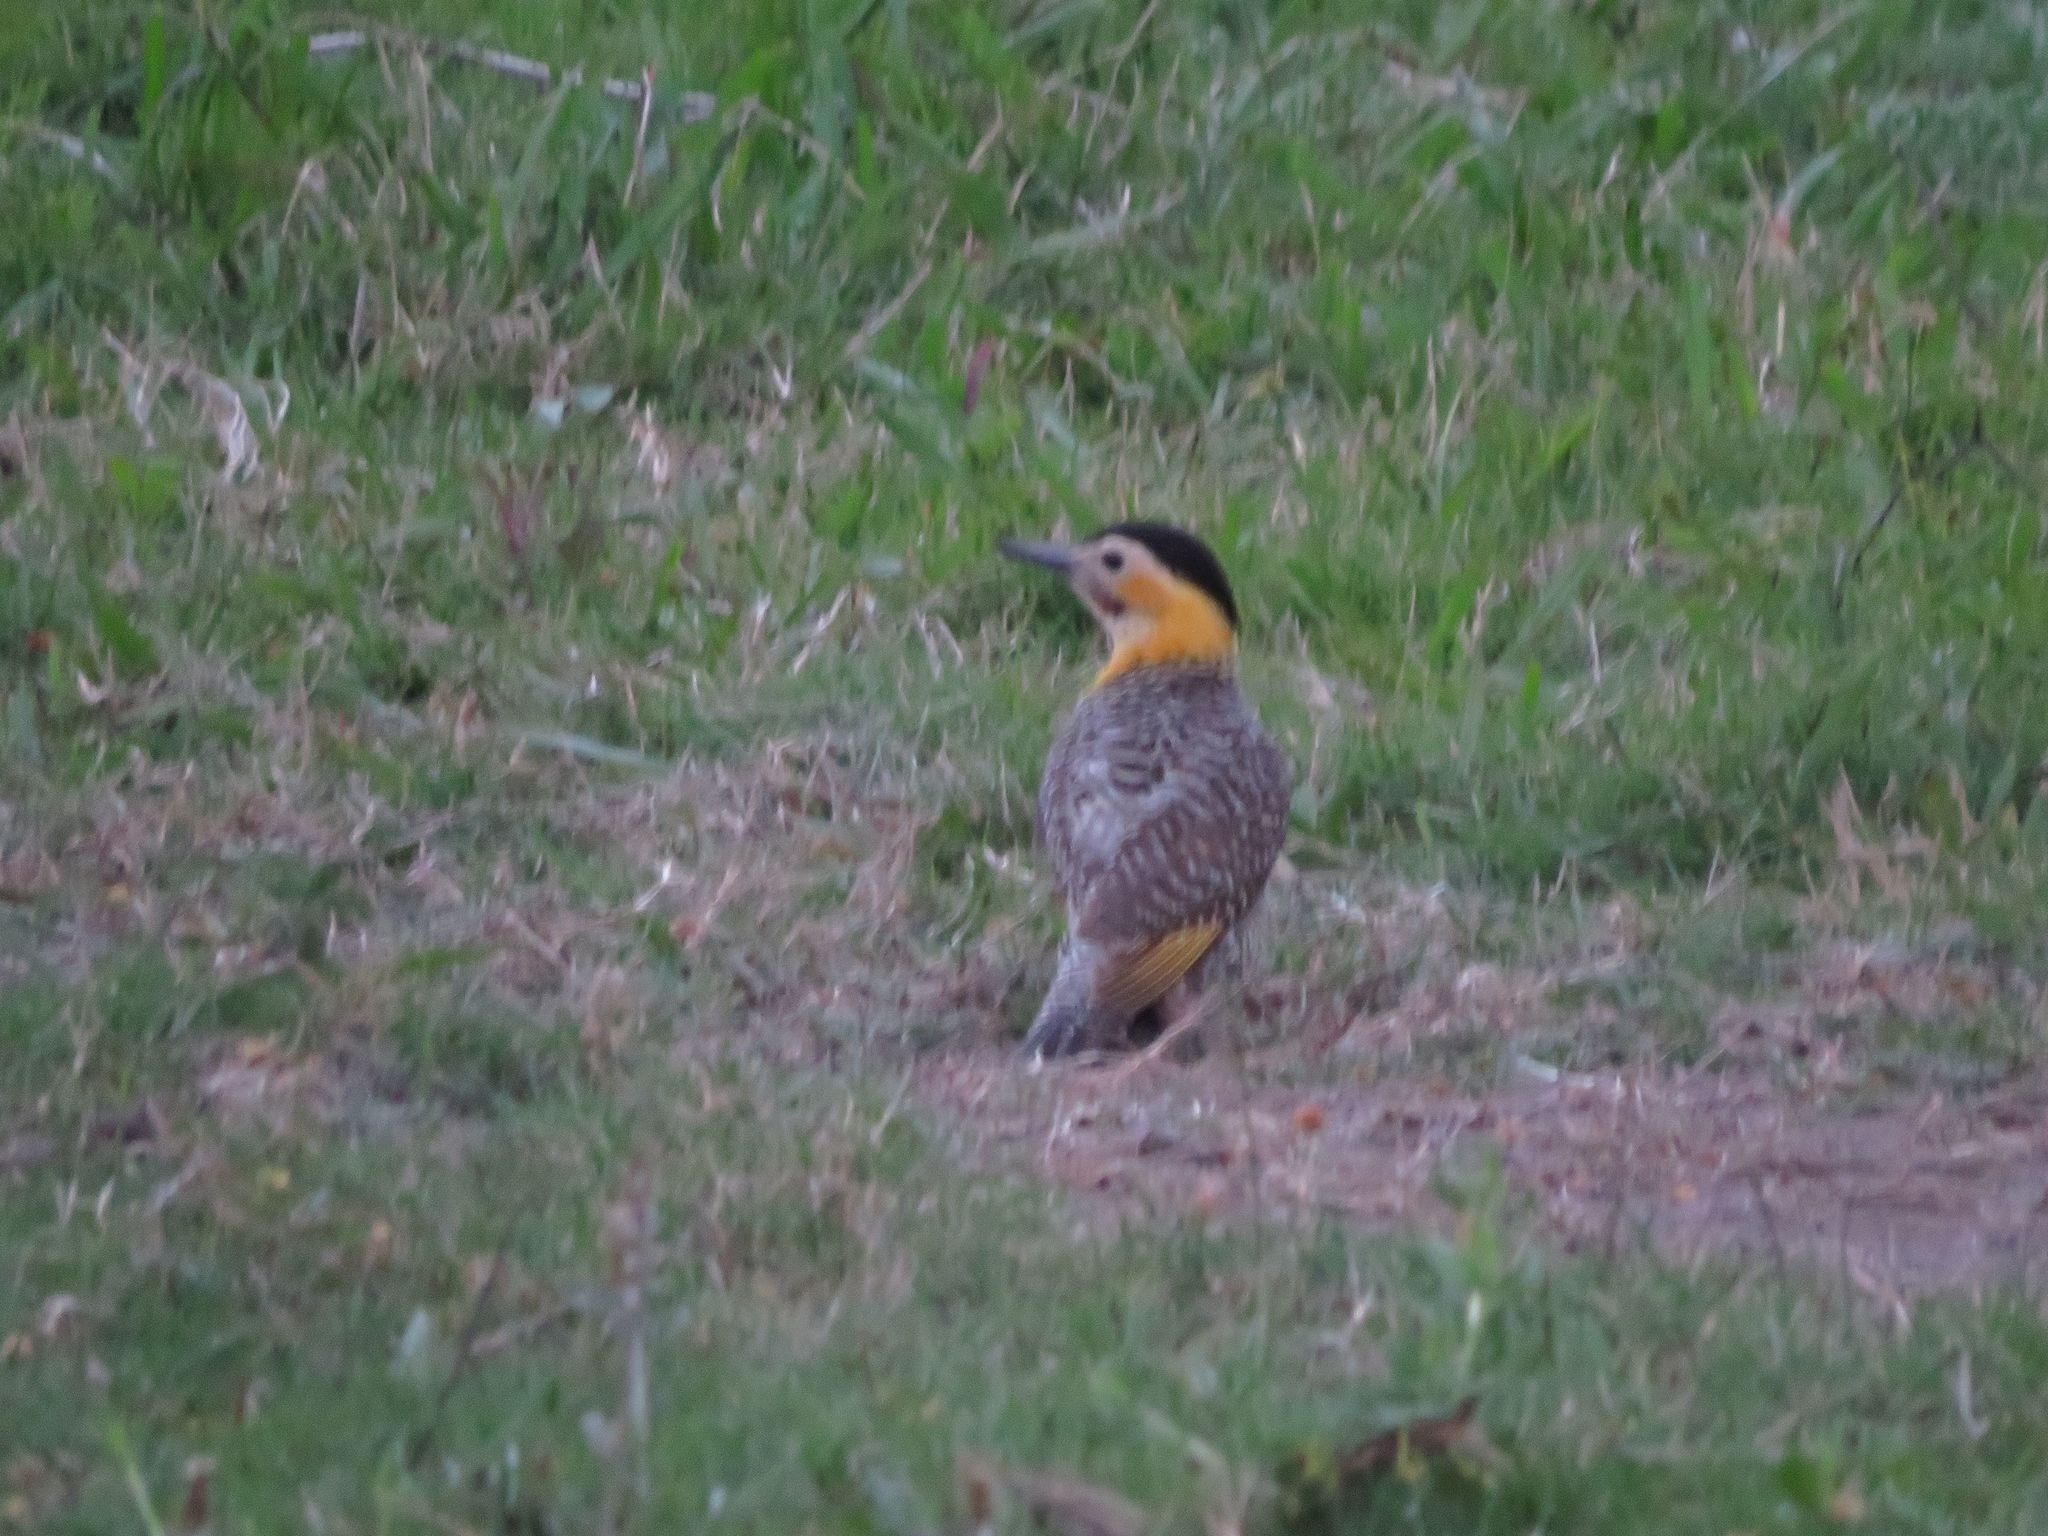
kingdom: Animalia
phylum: Chordata
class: Aves
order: Piciformes
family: Picidae
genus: Colaptes
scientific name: Colaptes campestris
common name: Campo flicker
